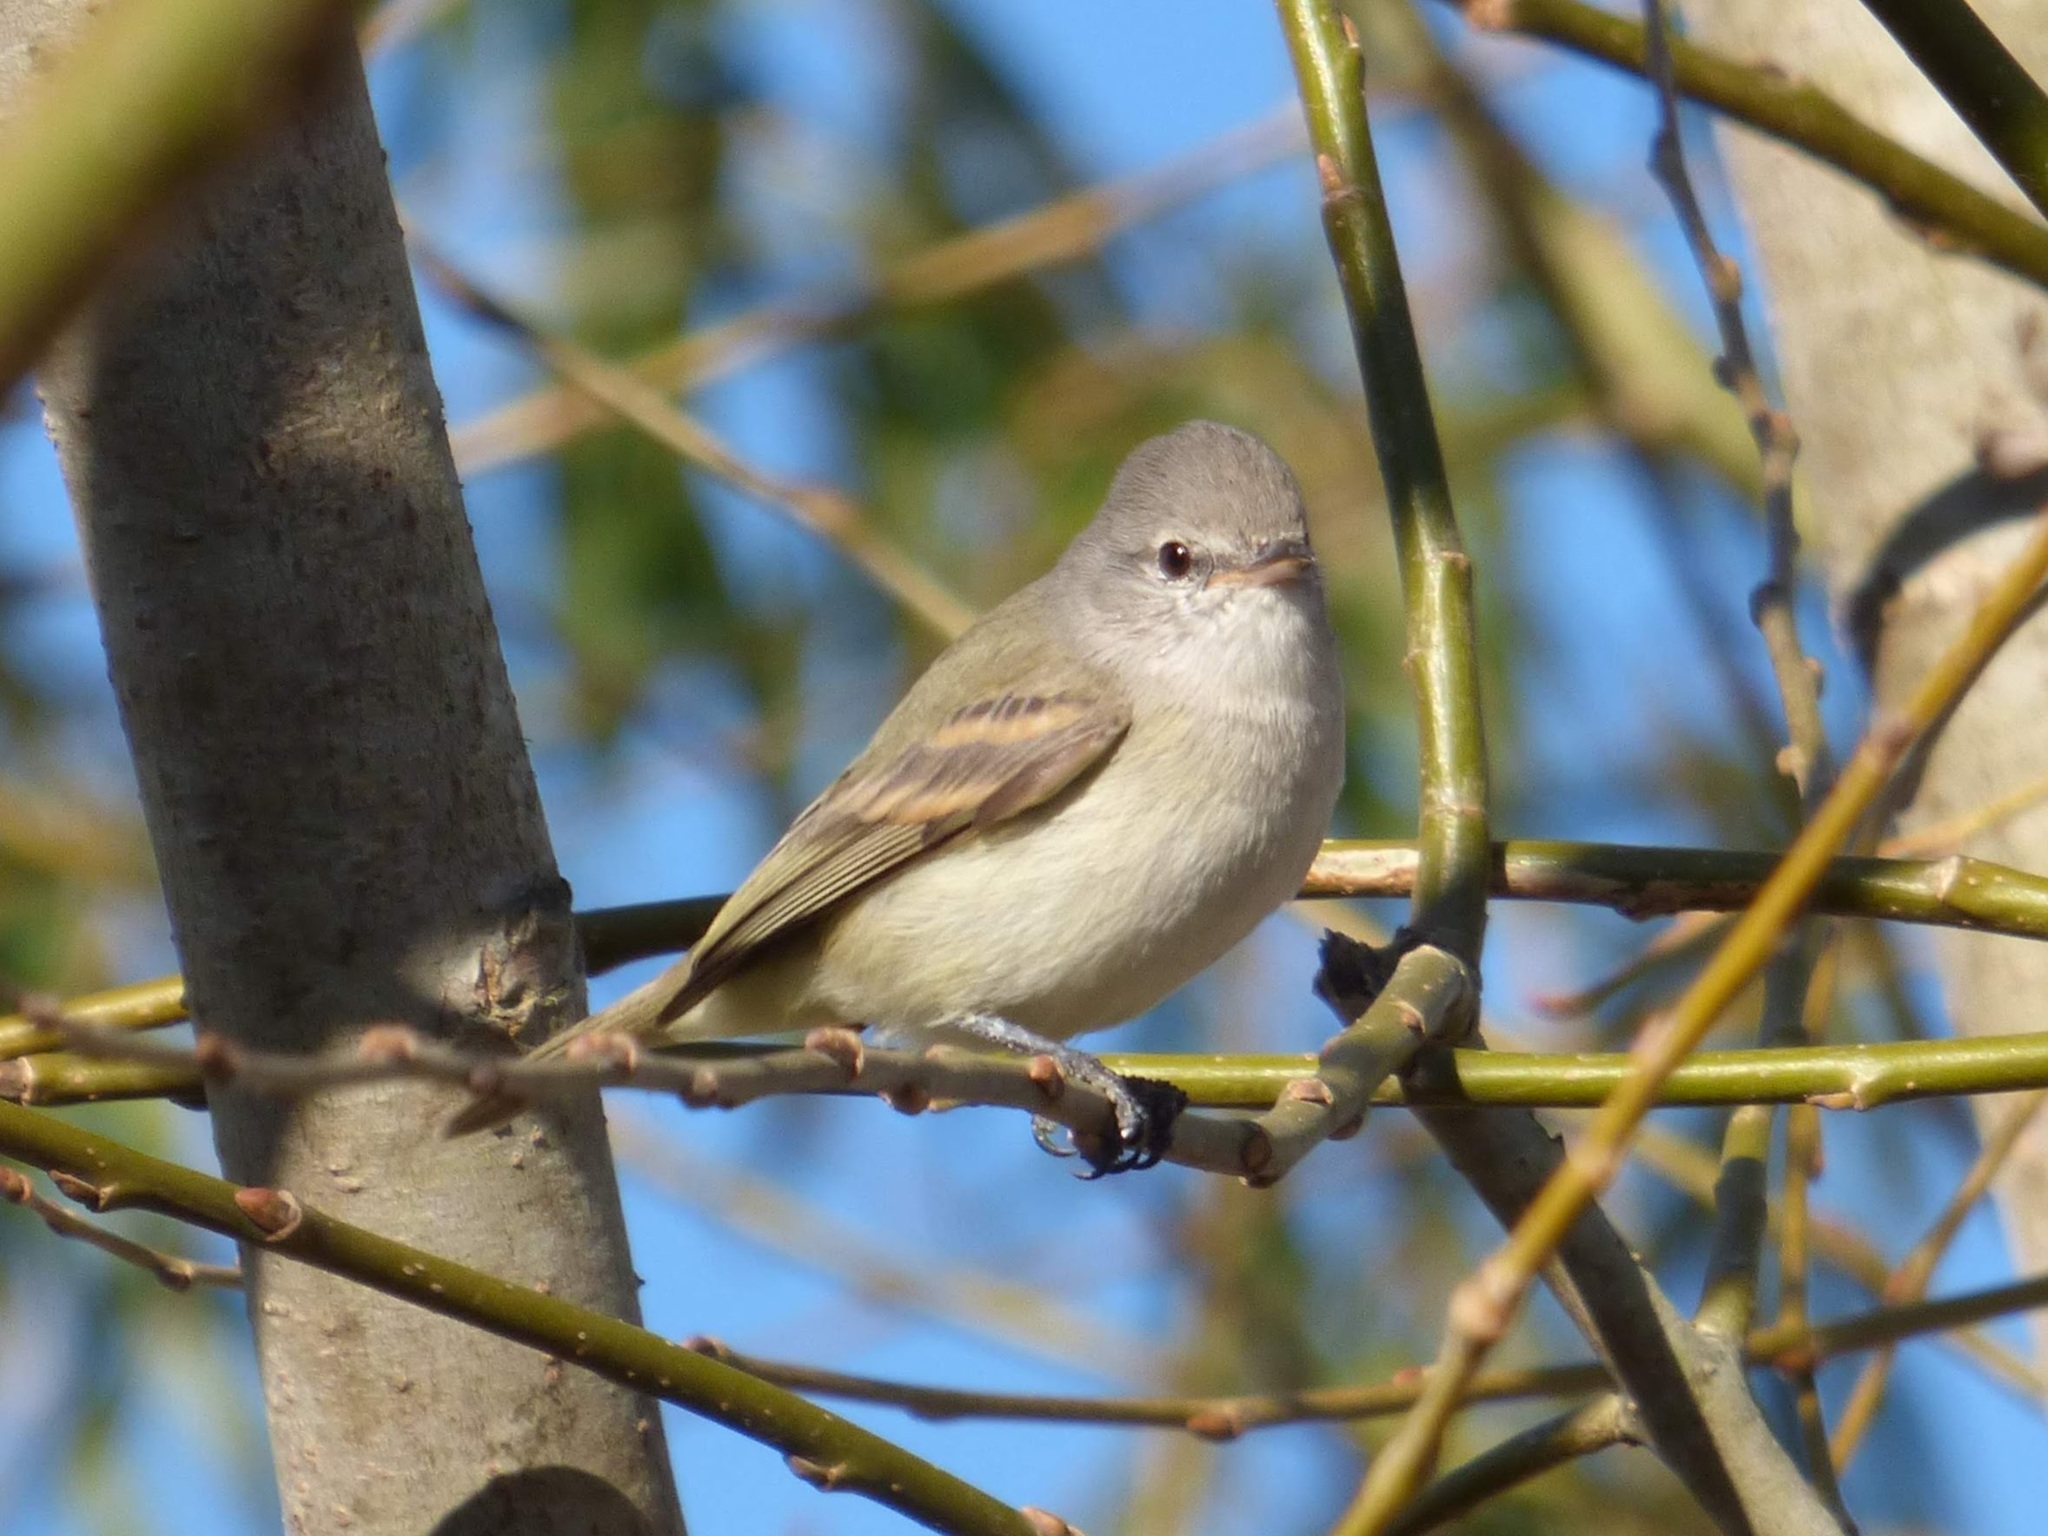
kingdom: Animalia
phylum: Chordata
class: Aves
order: Passeriformes
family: Tyrannidae
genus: Camptostoma
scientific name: Camptostoma obsoletum
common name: Southern beardless-tyrannulet
